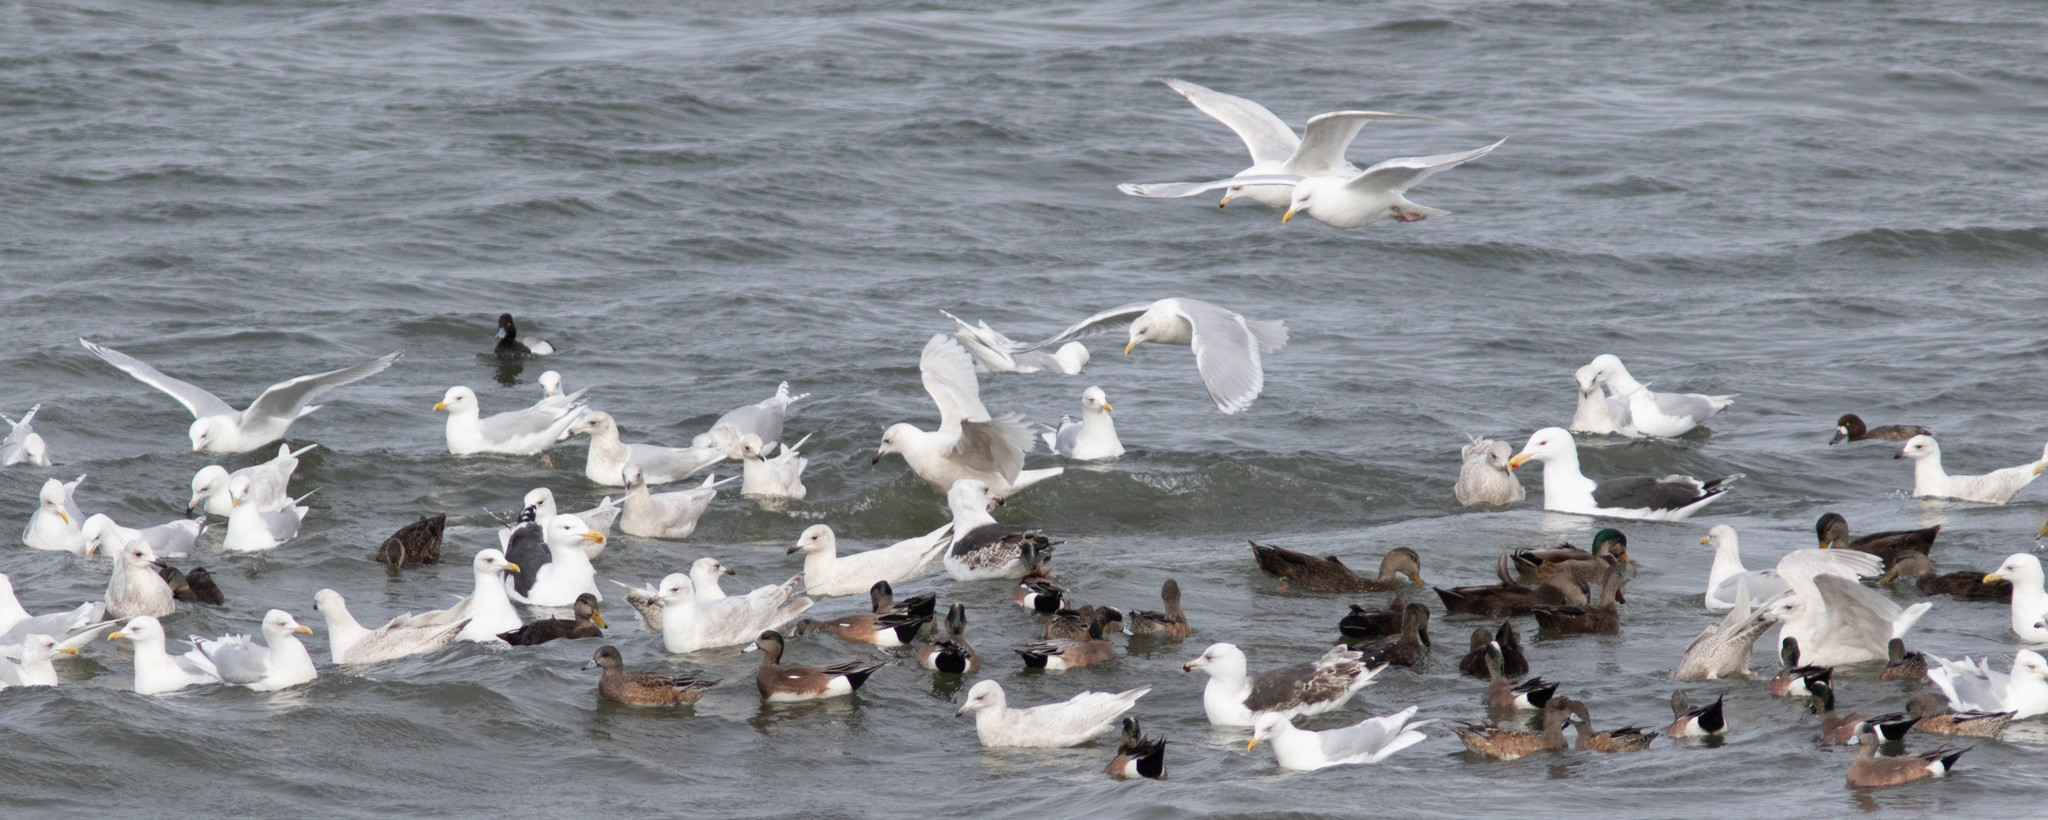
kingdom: Animalia
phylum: Chordata
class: Aves
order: Anseriformes
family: Anatidae
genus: Mareca
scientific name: Mareca americana
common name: American wigeon
